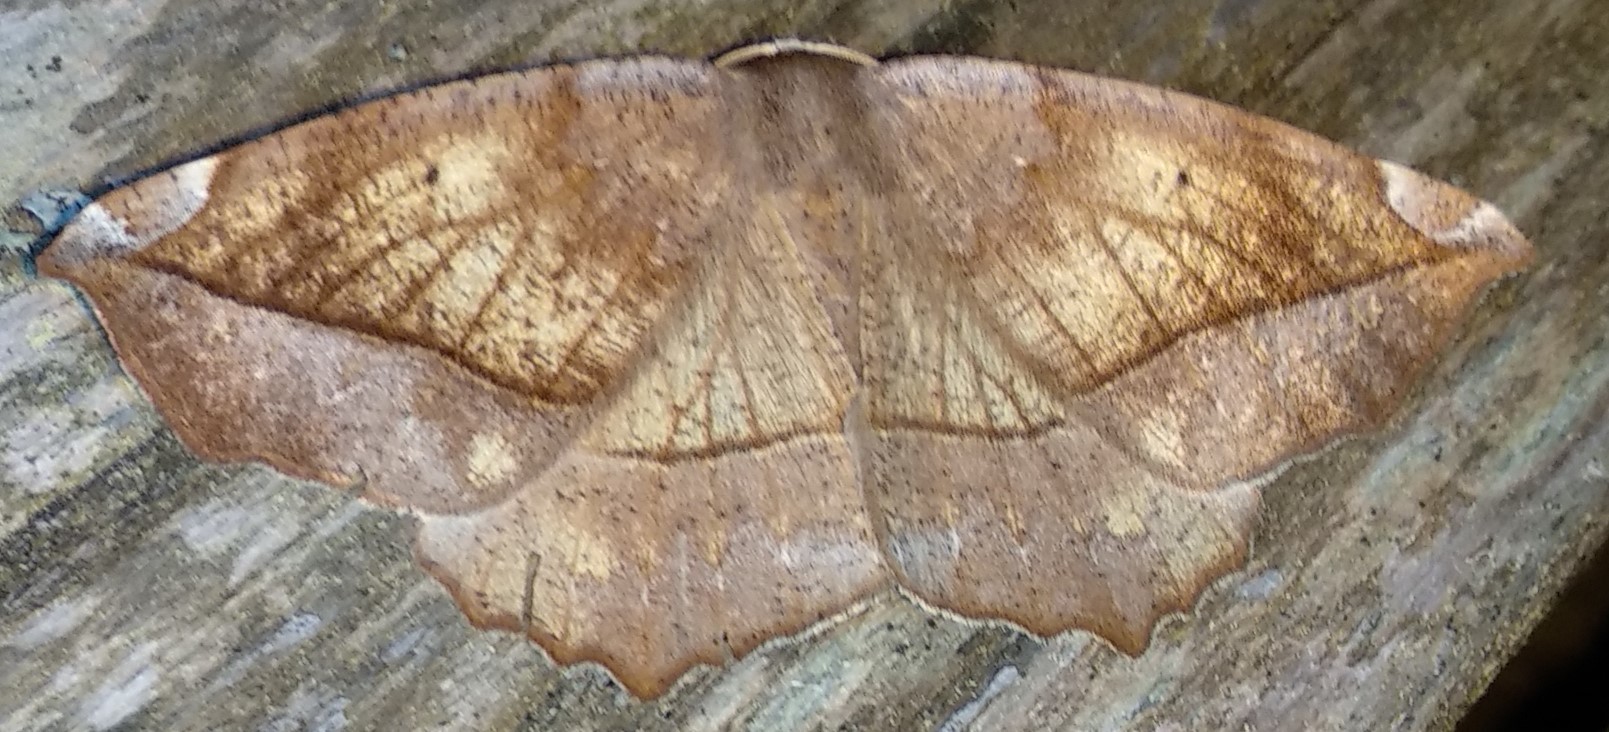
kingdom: Animalia
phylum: Arthropoda
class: Insecta
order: Lepidoptera
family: Geometridae
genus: Eutrapela
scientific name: Eutrapela clemataria
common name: Curved-toothed geometer
